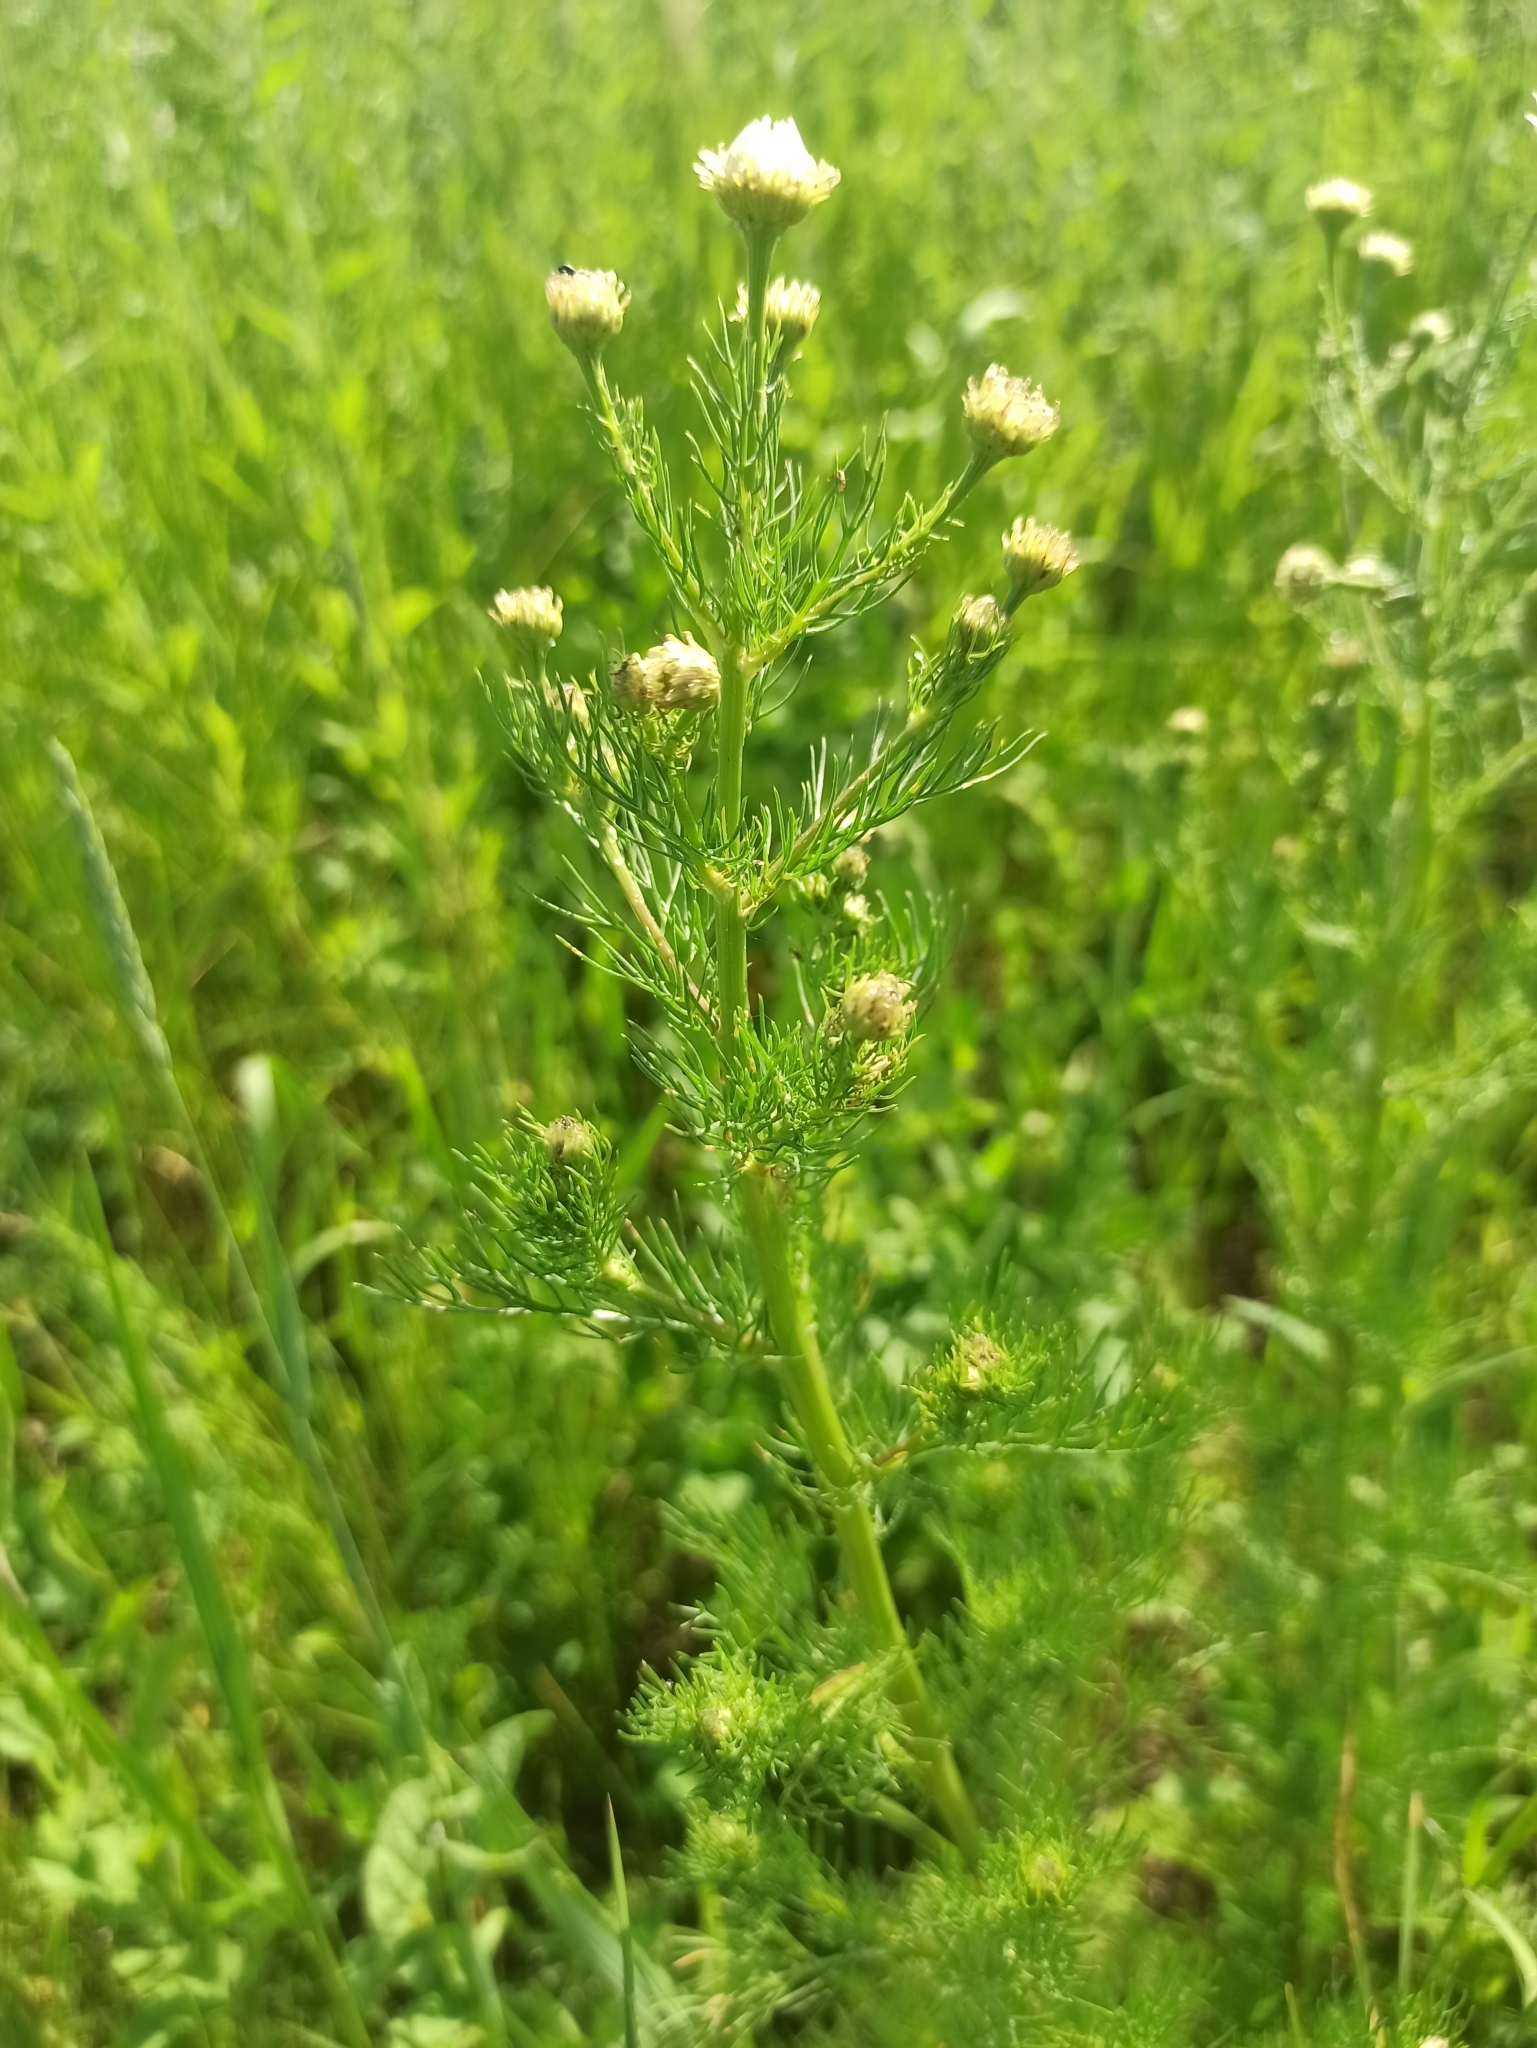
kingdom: Plantae
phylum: Tracheophyta
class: Magnoliopsida
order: Asterales
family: Asteraceae
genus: Tripleurospermum
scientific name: Tripleurospermum inodorum
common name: Scentless mayweed
